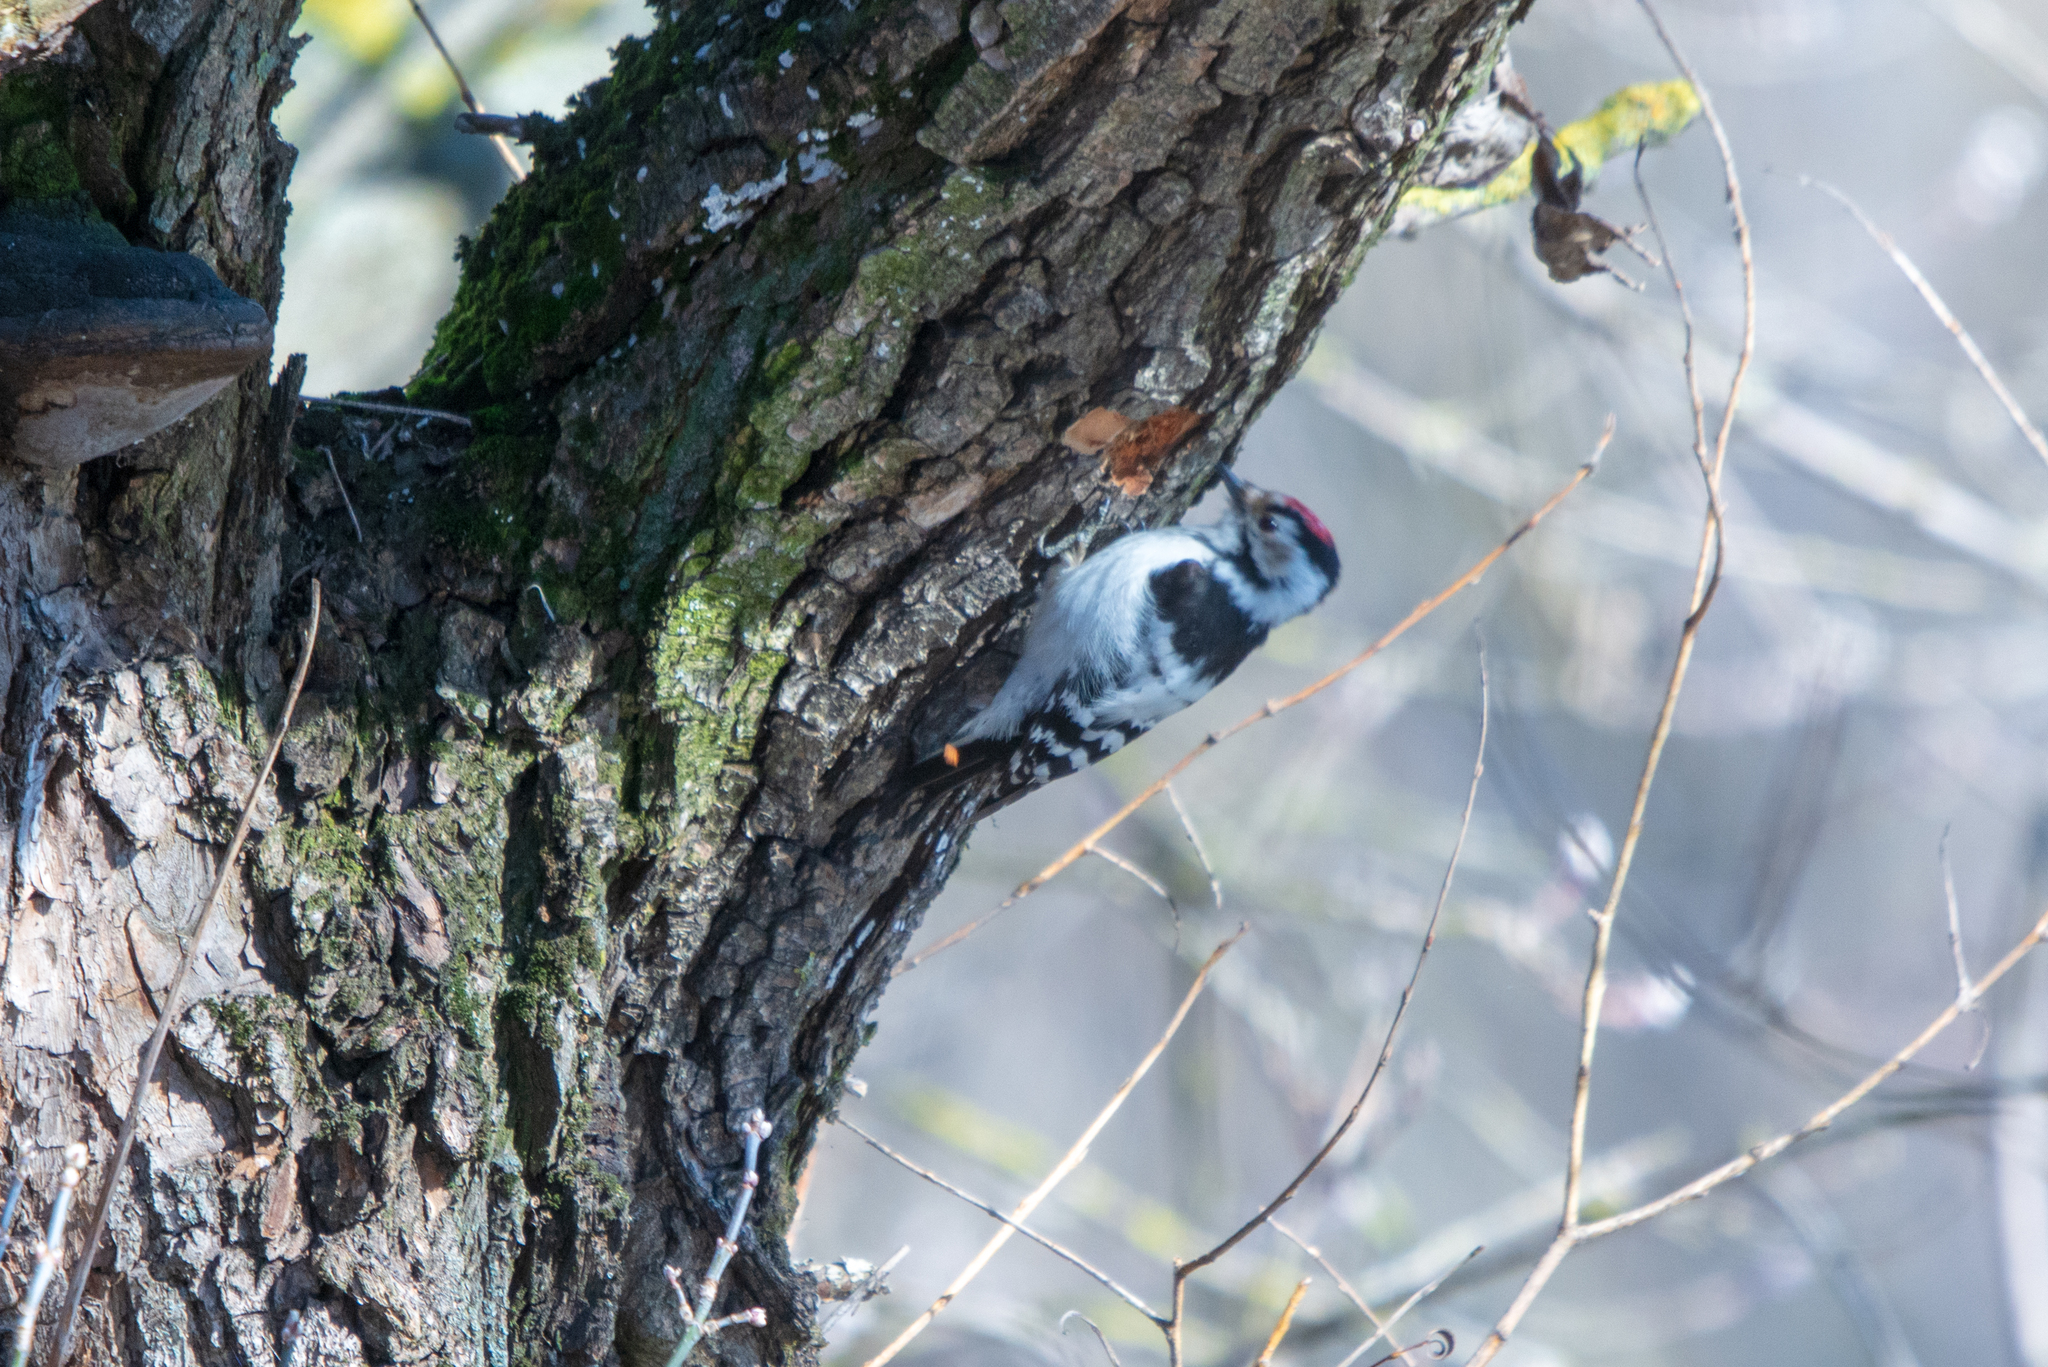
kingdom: Animalia
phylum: Chordata
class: Aves
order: Piciformes
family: Picidae
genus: Dryobates
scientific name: Dryobates minor
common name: Lesser spotted woodpecker
